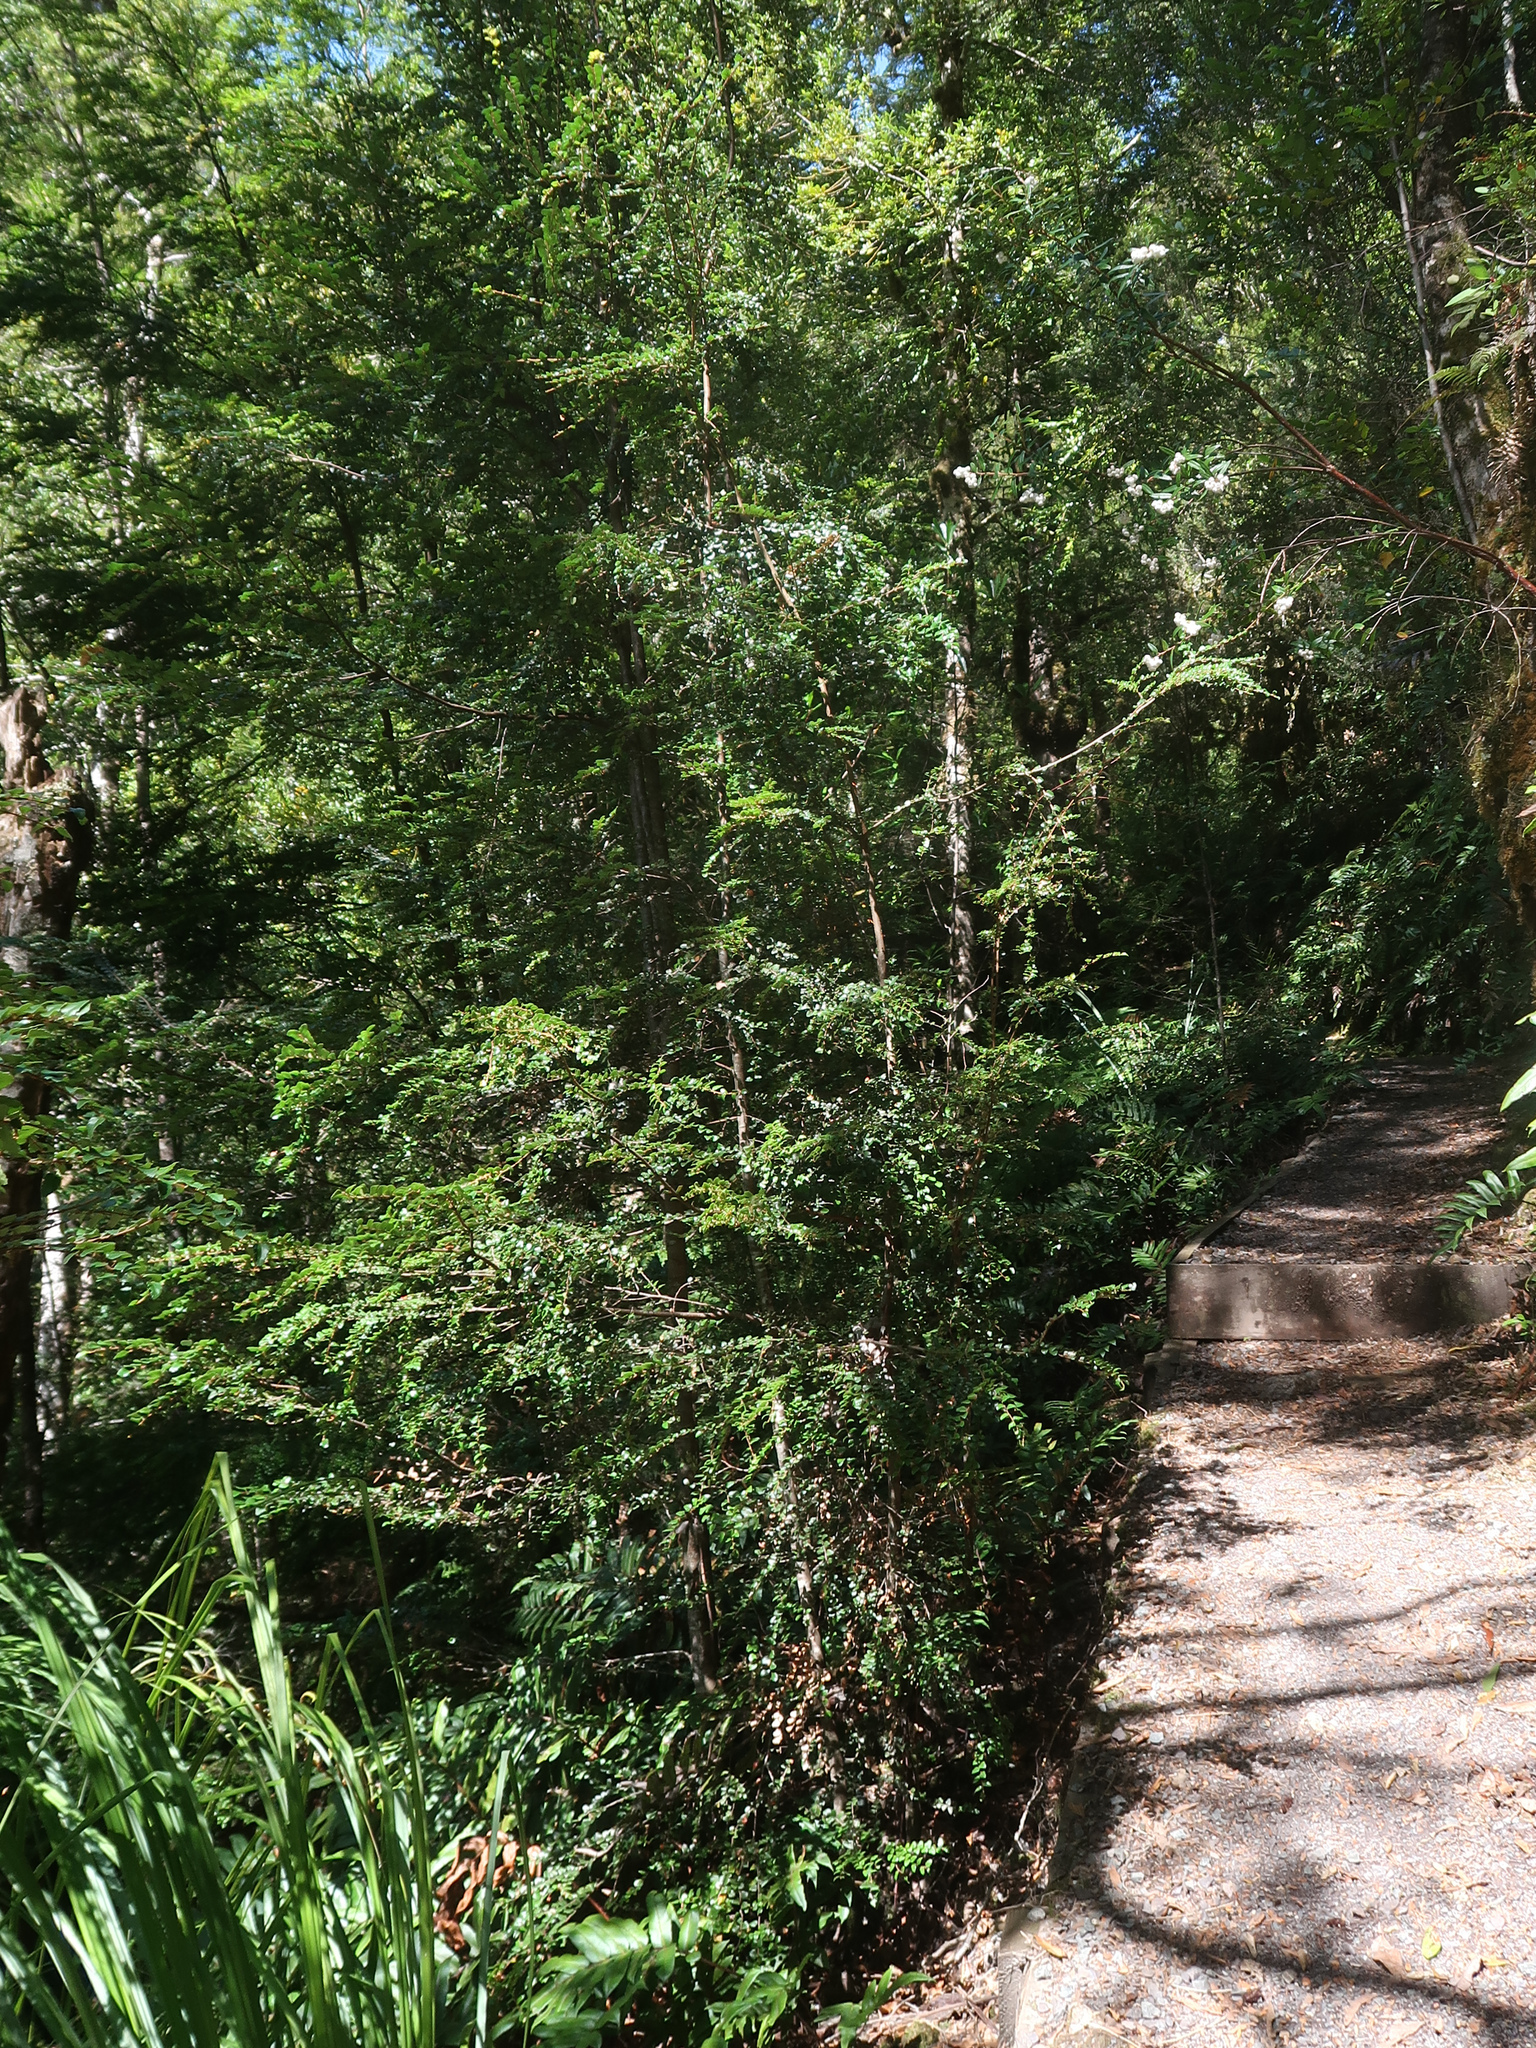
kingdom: Plantae
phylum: Tracheophyta
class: Magnoliopsida
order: Fagales
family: Nothofagaceae
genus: Nothofagus
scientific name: Nothofagus cunninghamii
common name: Myrtle beech
